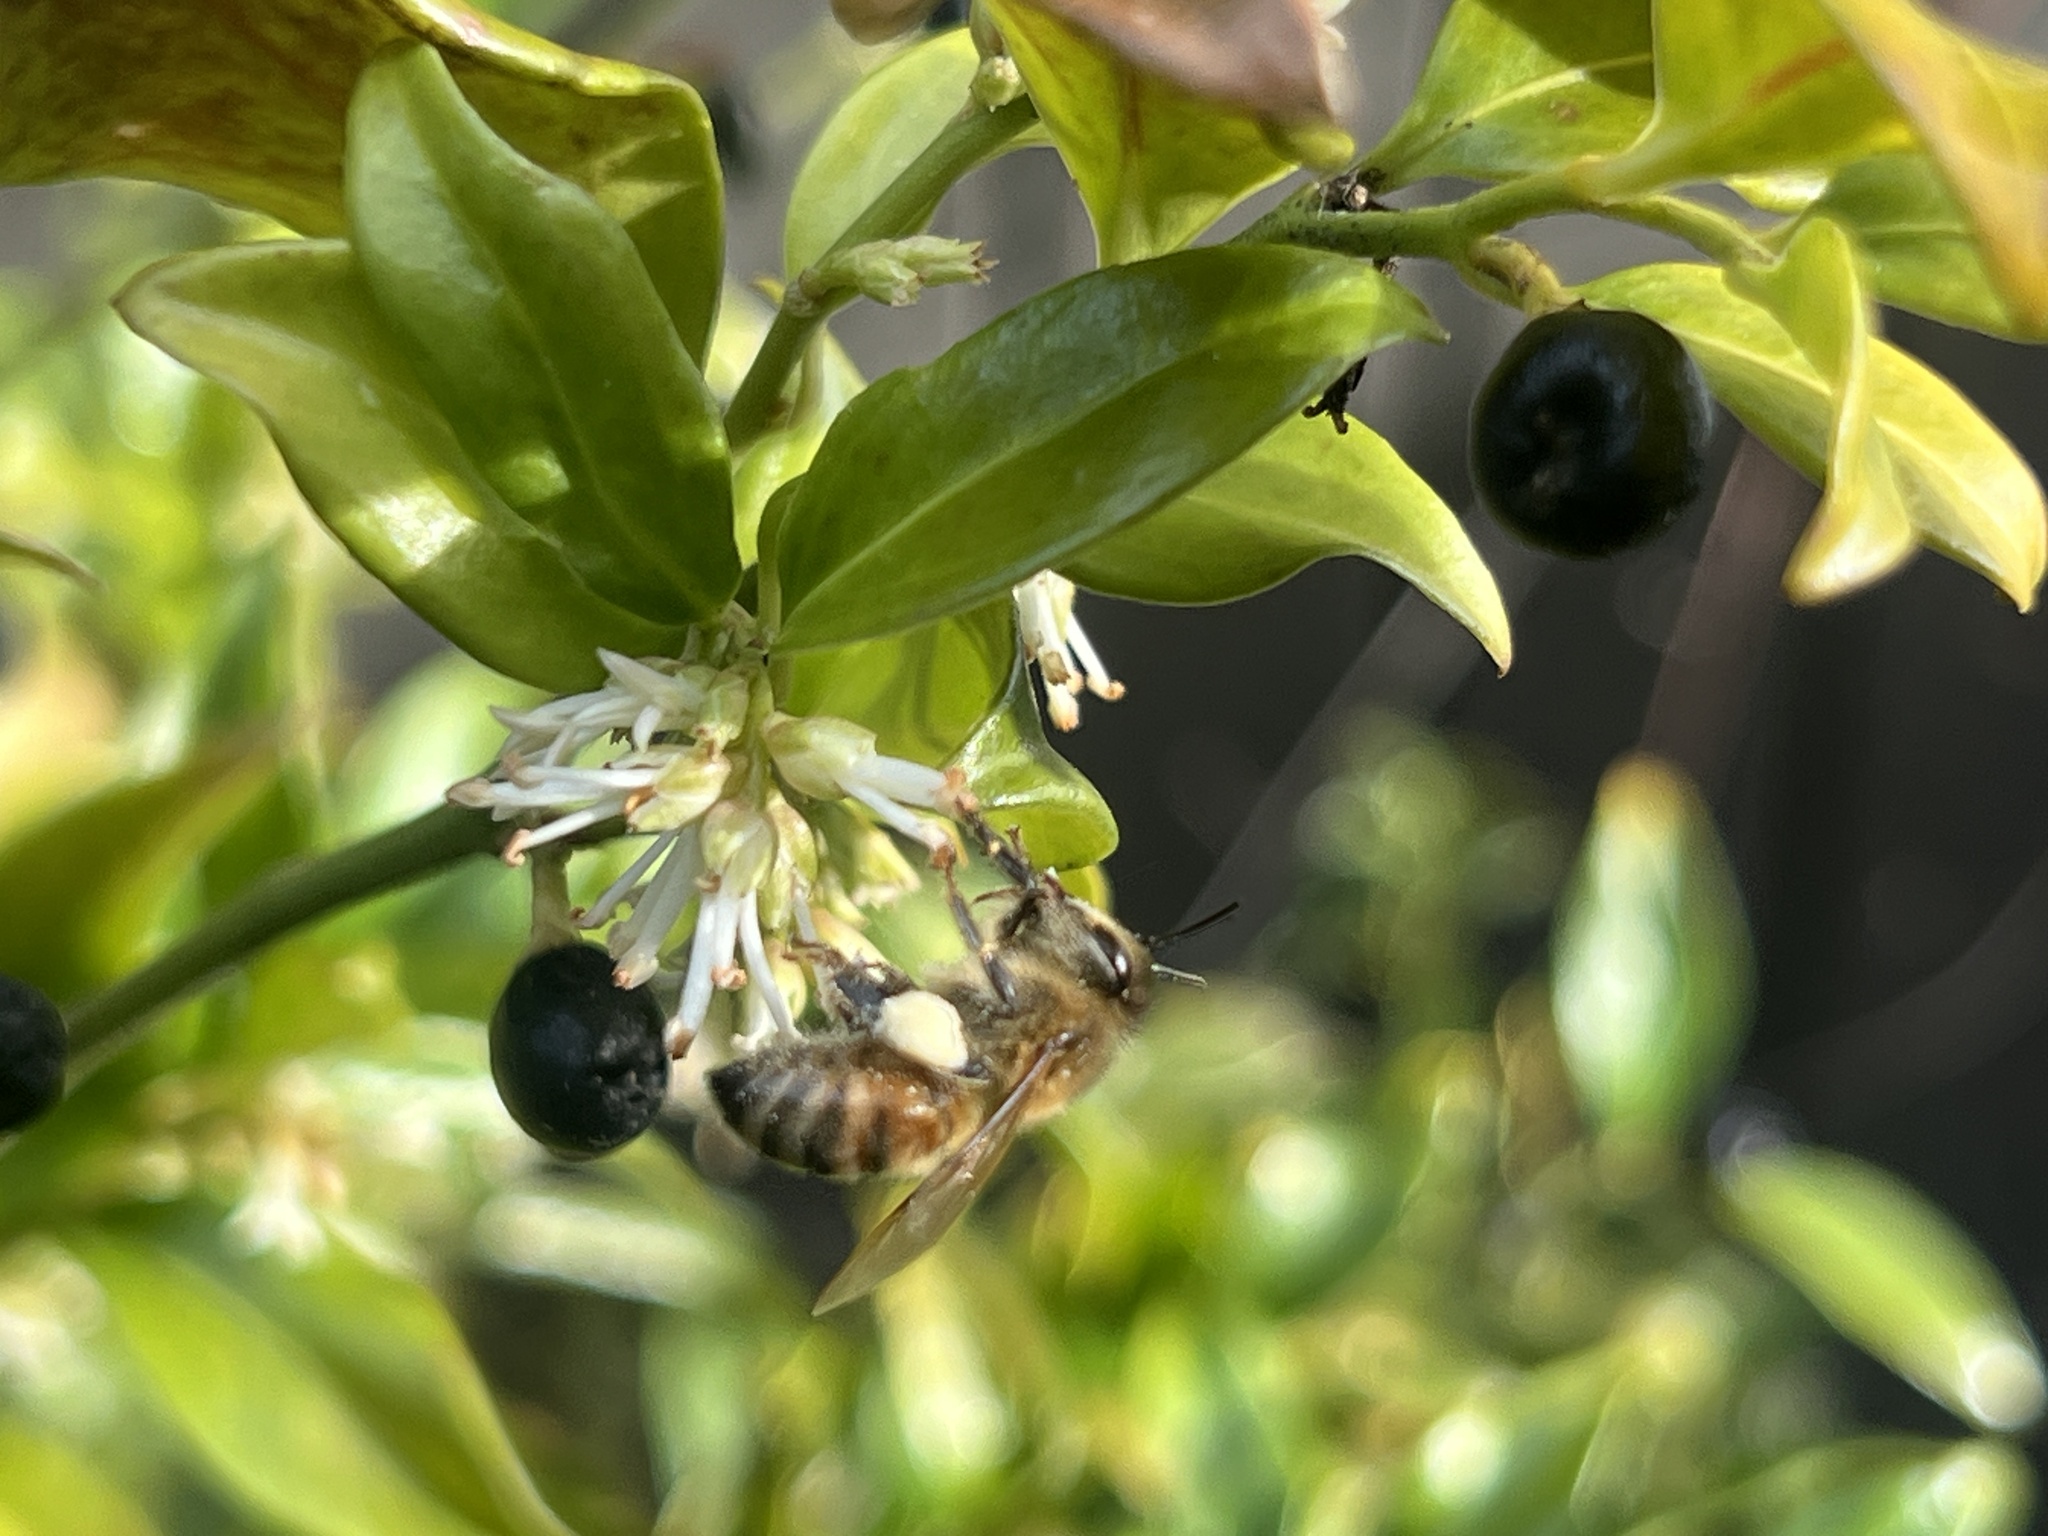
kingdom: Animalia
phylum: Arthropoda
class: Insecta
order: Hymenoptera
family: Apidae
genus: Apis
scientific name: Apis mellifera
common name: Honey bee
